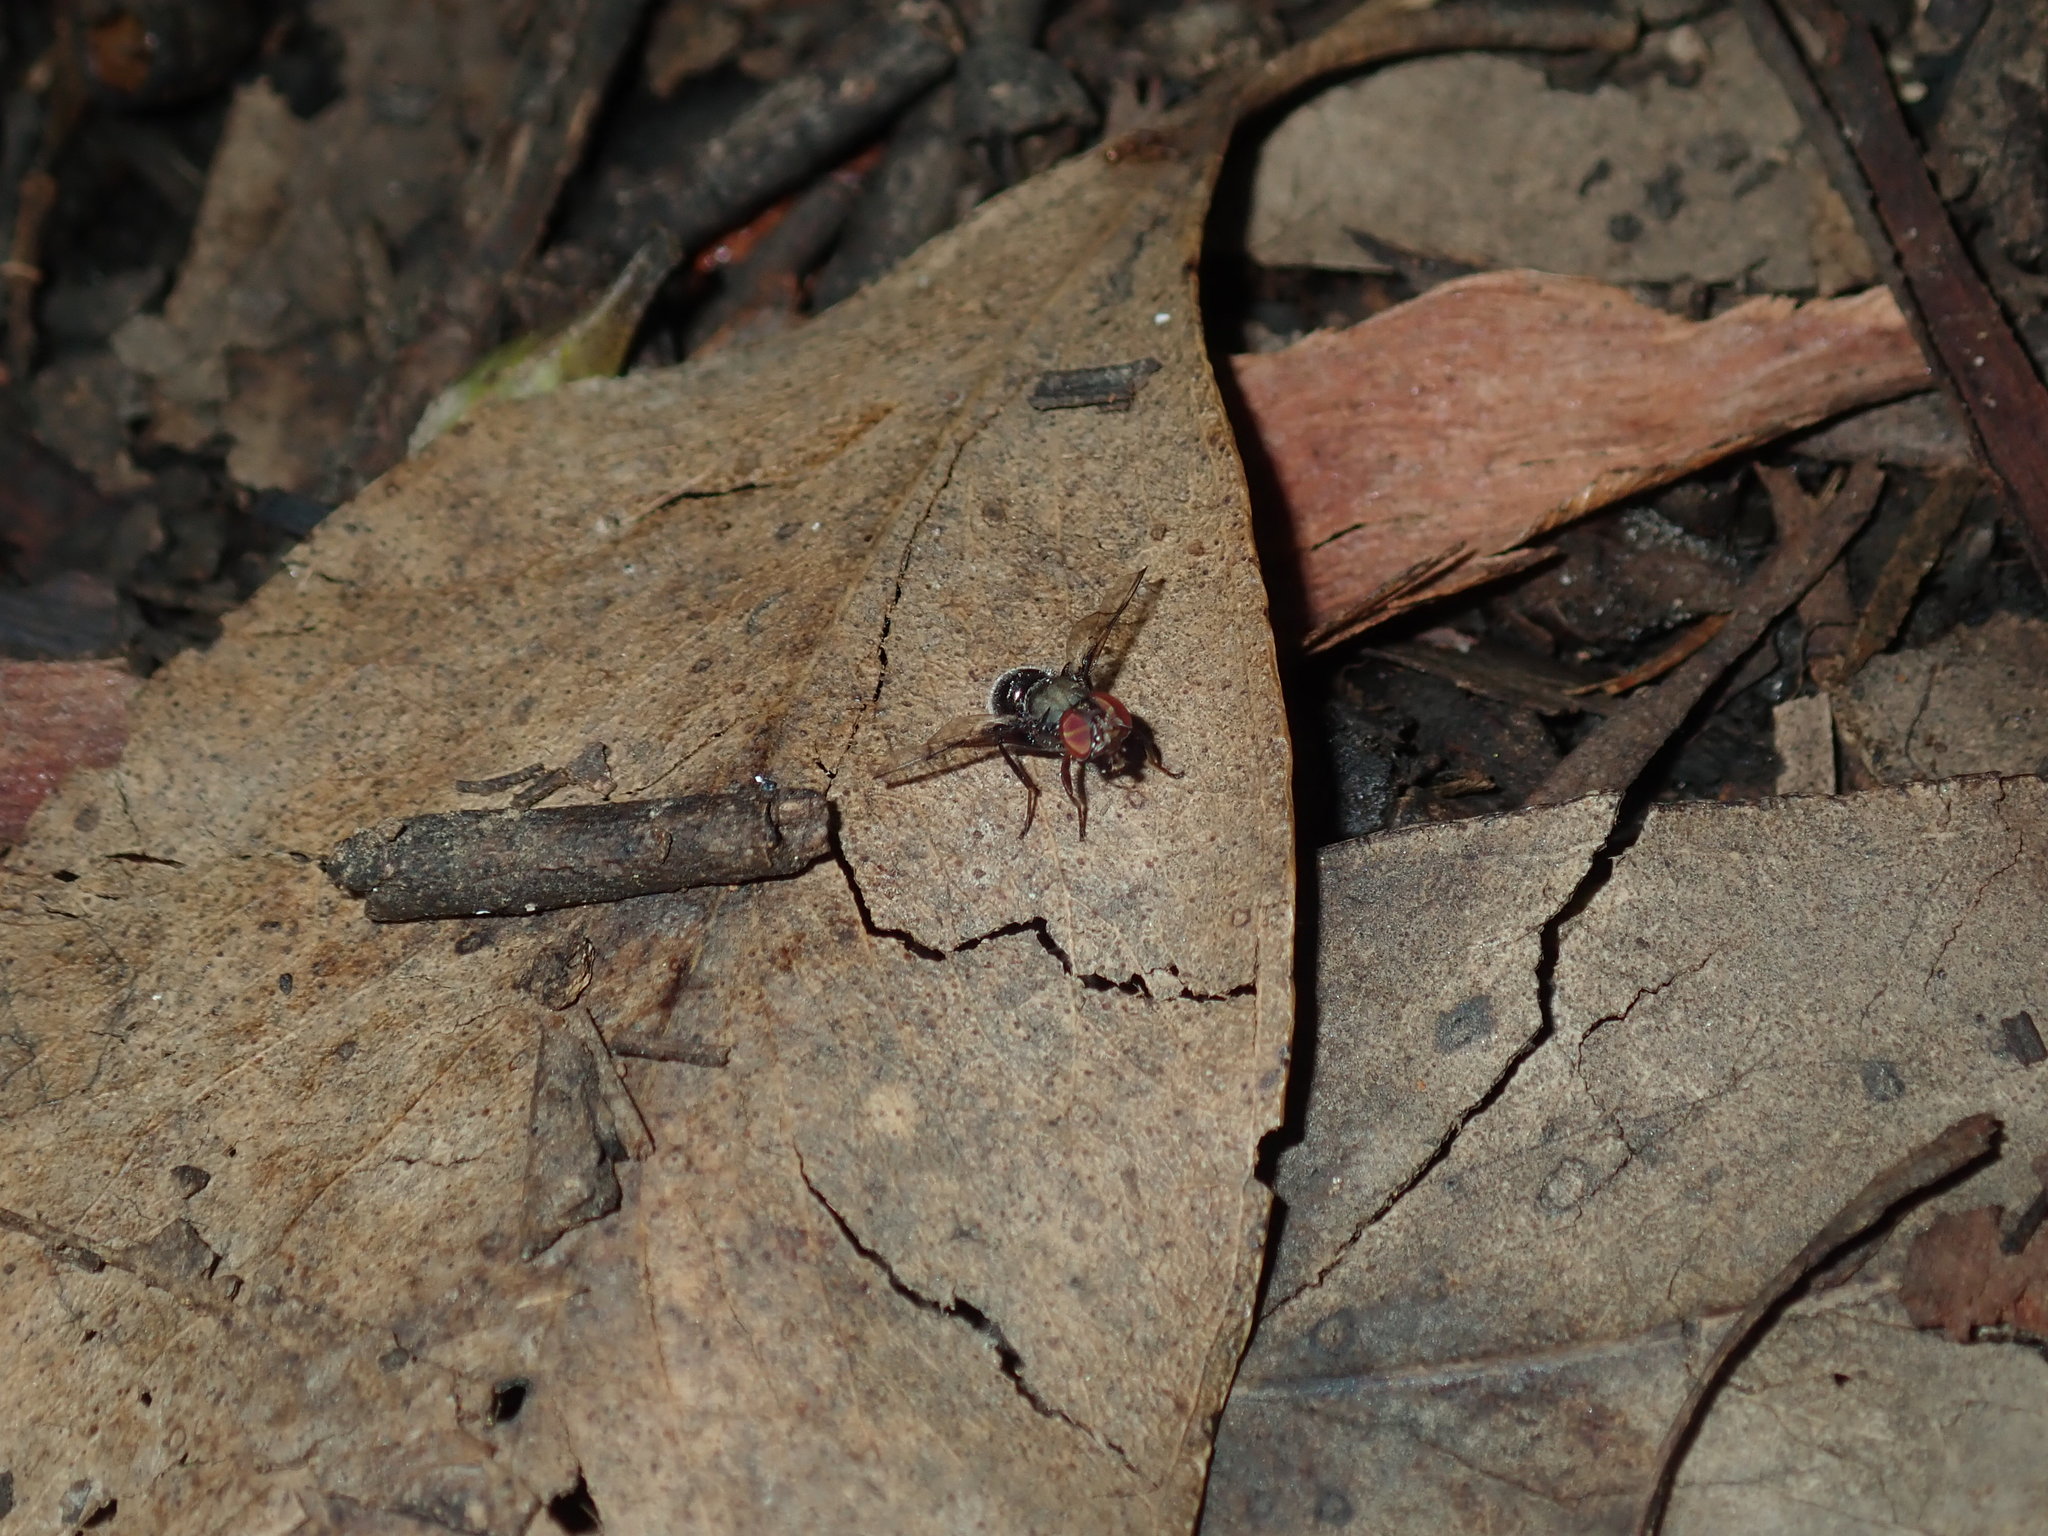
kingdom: Animalia
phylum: Arthropoda
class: Insecta
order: Diptera
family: Platystomatidae
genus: Pogonortalis
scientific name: Pogonortalis doclea
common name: Boatman fly
